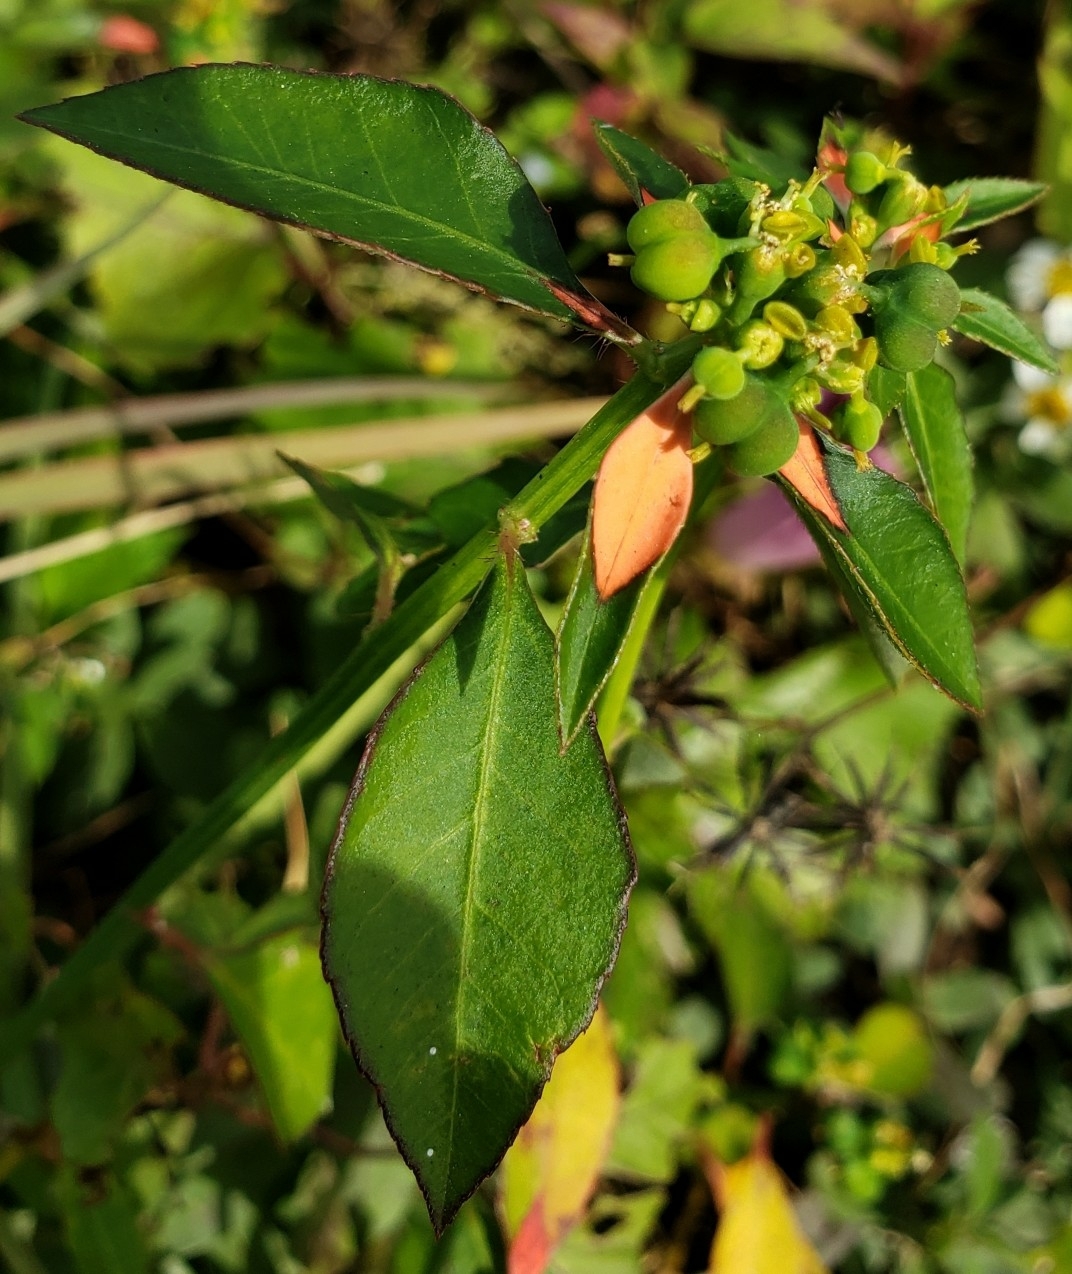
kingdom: Plantae
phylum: Tracheophyta
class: Magnoliopsida
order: Malpighiales
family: Euphorbiaceae
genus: Euphorbia
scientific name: Euphorbia heterophylla
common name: Mexican fireplant
